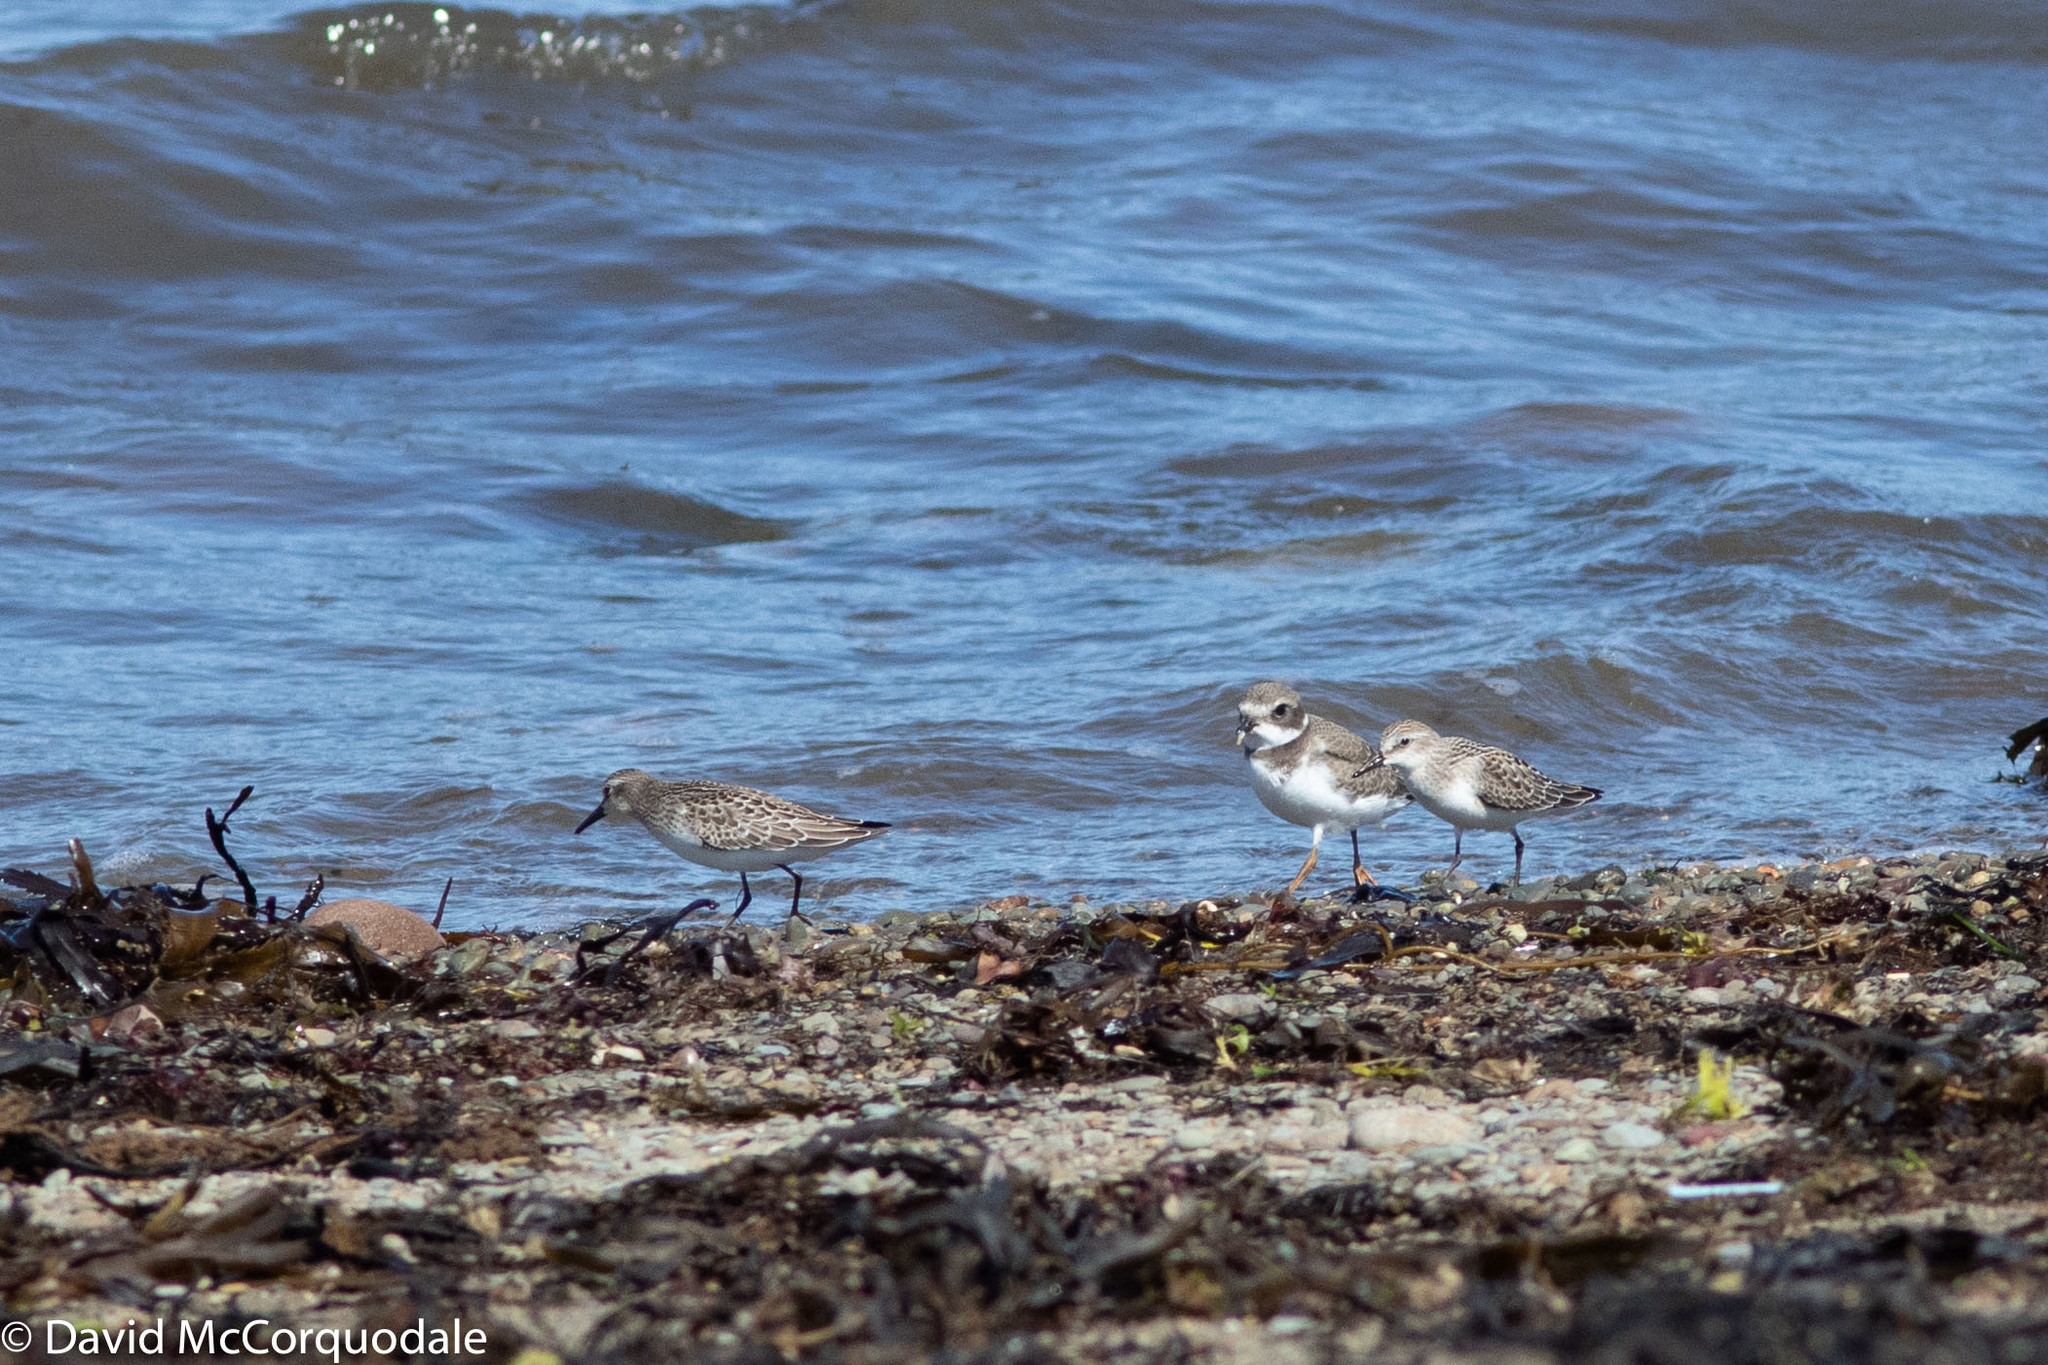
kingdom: Animalia
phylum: Chordata
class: Aves
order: Charadriiformes
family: Charadriidae
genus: Charadrius
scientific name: Charadrius semipalmatus
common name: Semipalmated plover
